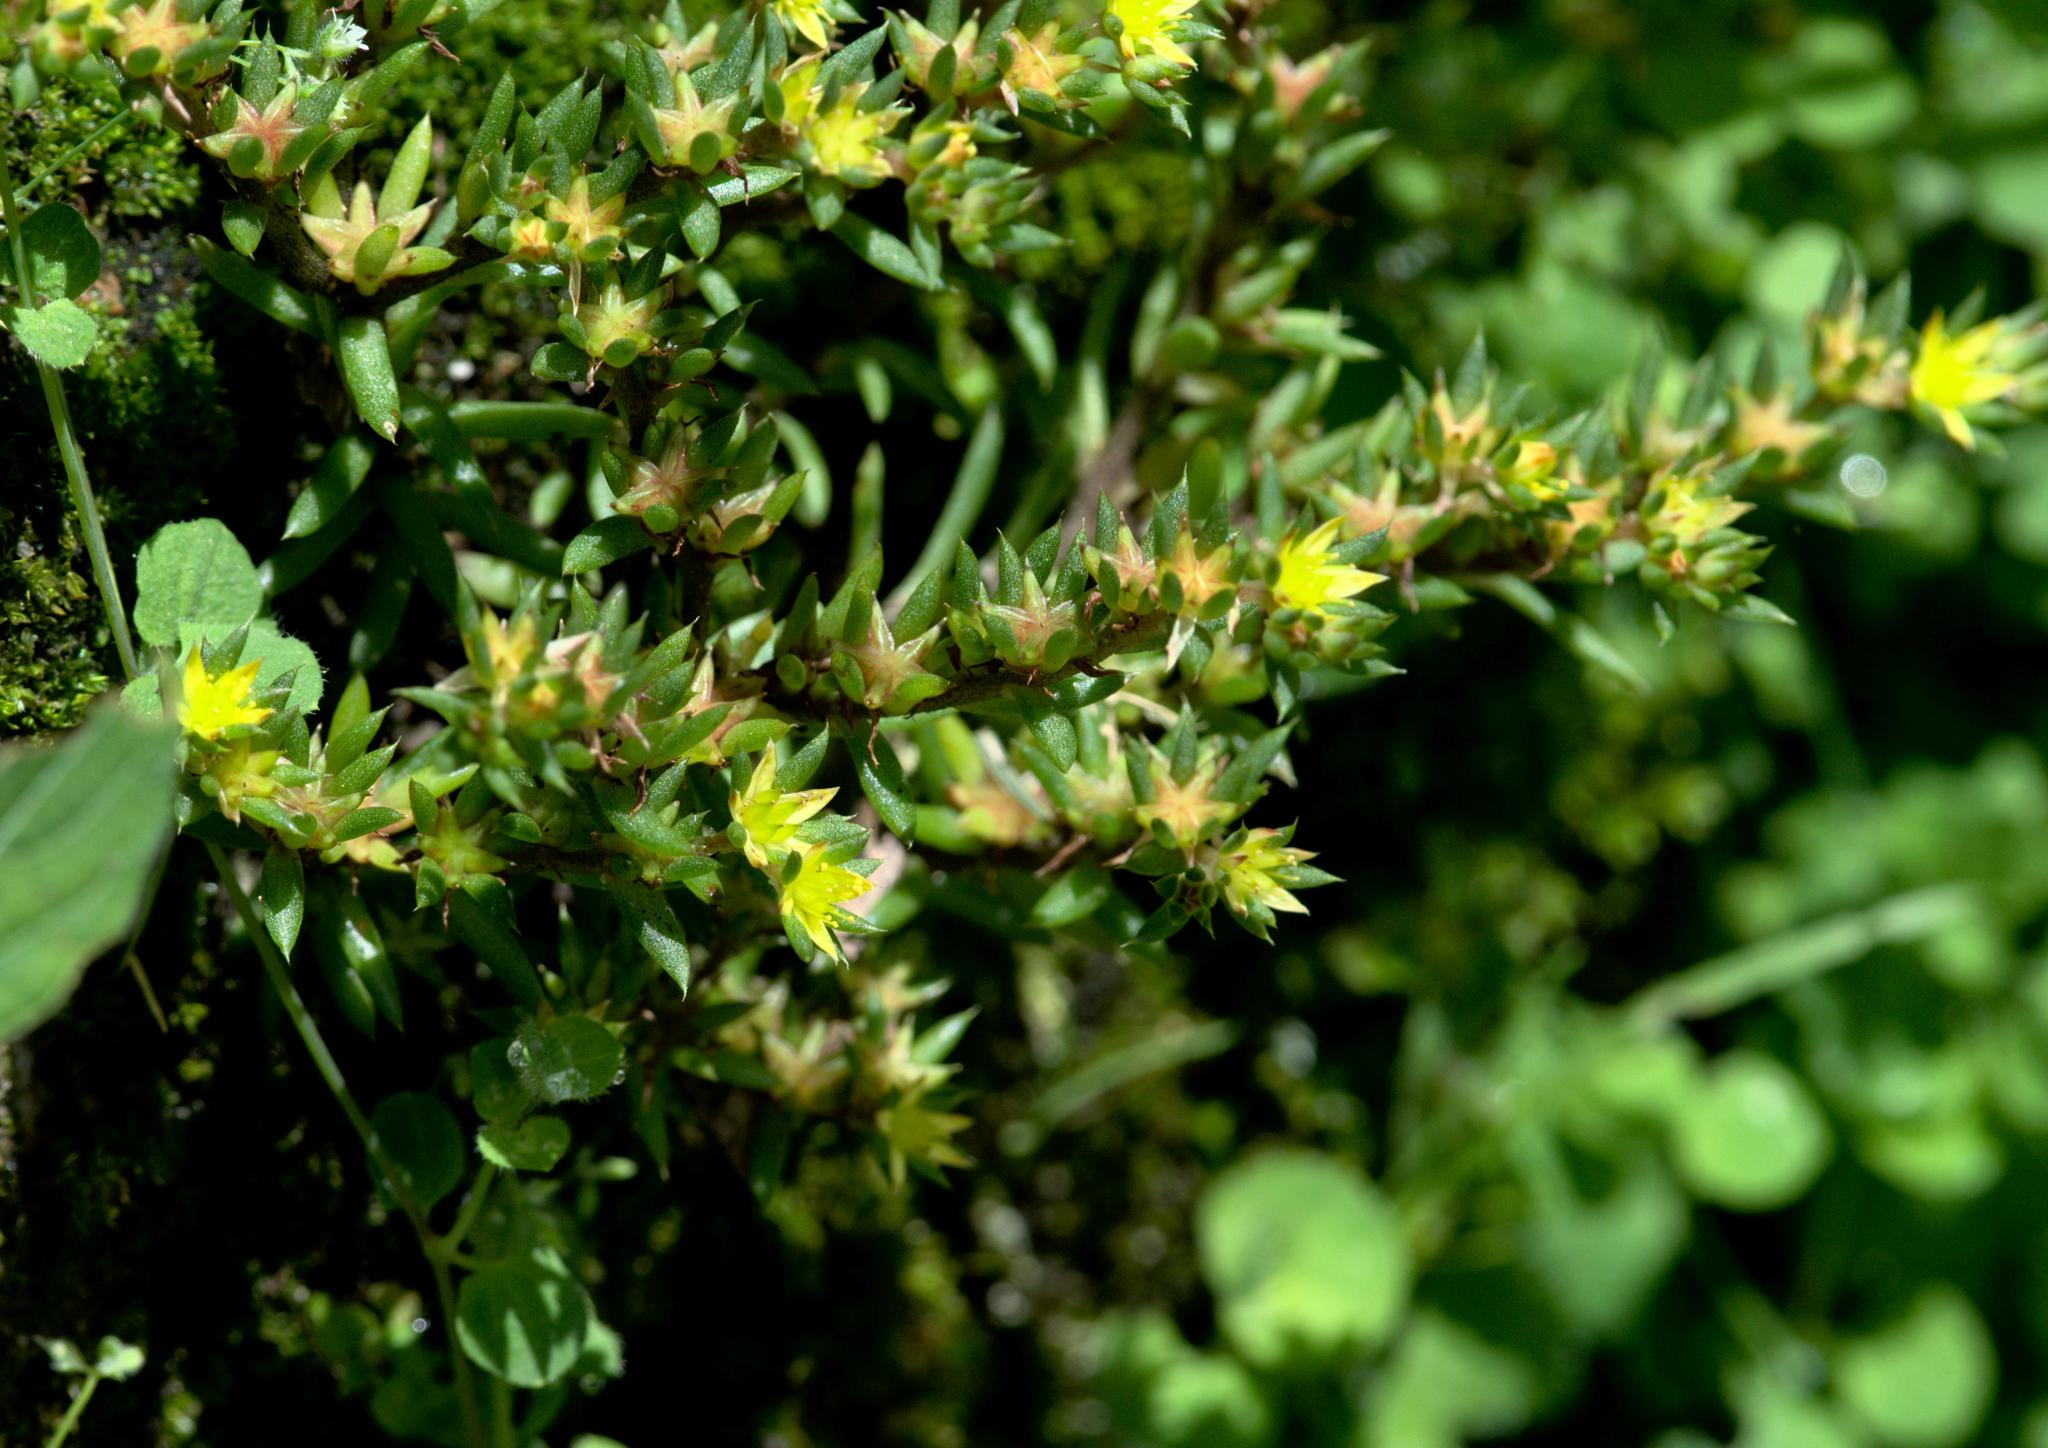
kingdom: Plantae
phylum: Tracheophyta
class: Magnoliopsida
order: Saxifragales
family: Crassulaceae
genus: Sedum
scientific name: Sedum multicaule
